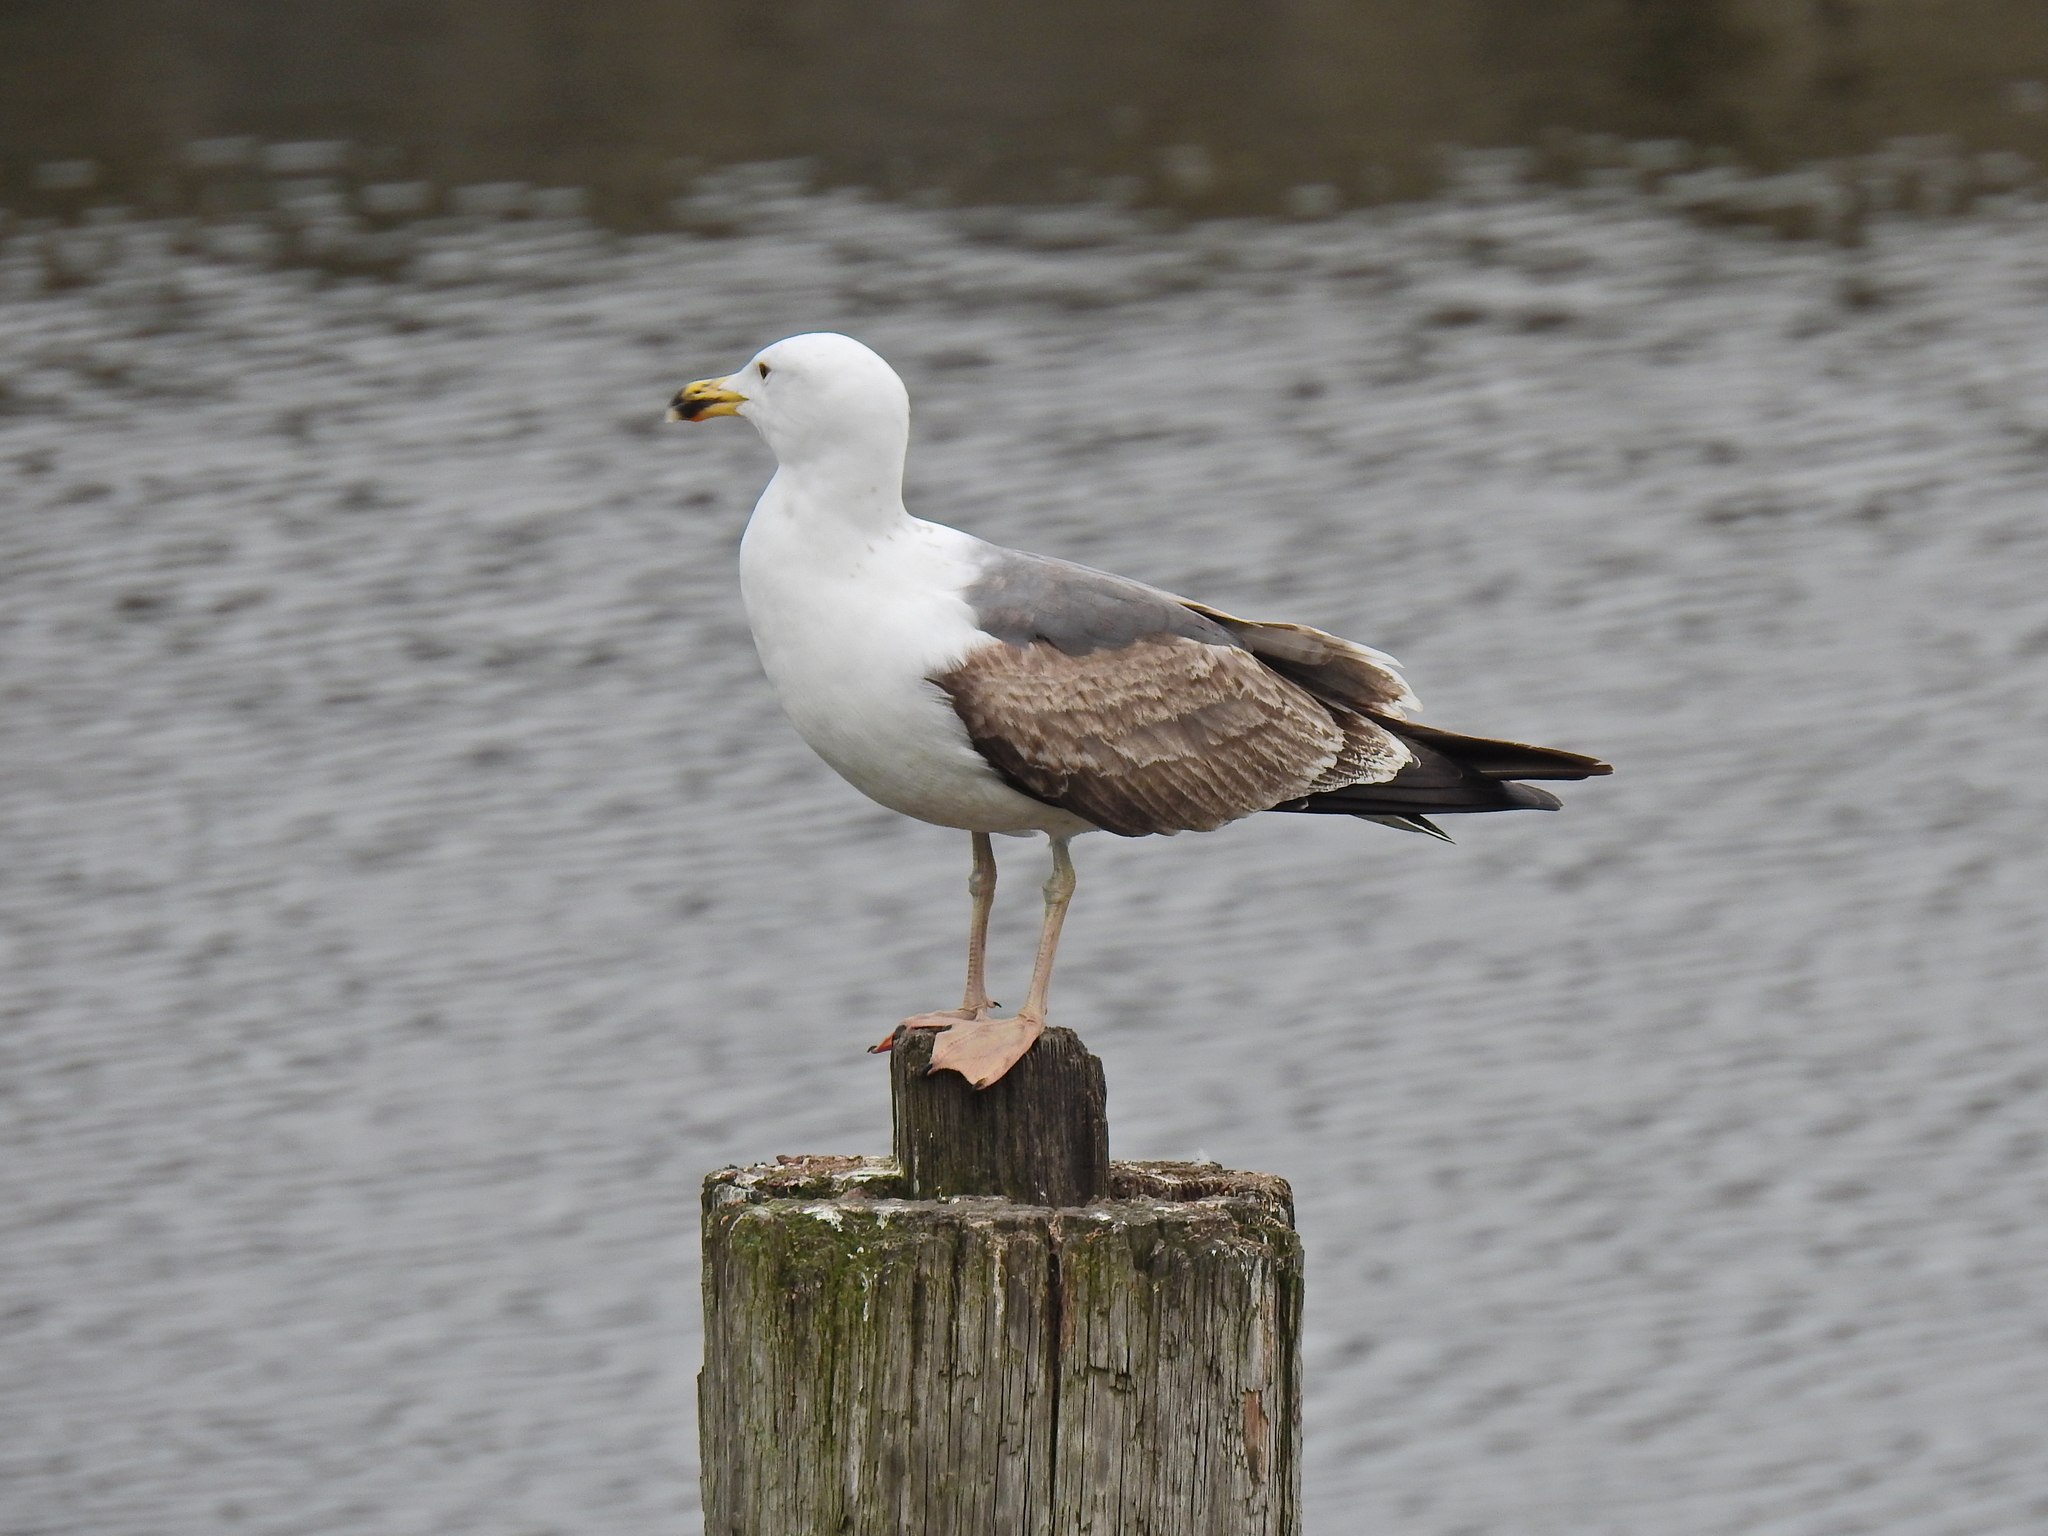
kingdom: Animalia
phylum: Chordata
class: Aves
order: Charadriiformes
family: Laridae
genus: Larus
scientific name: Larus marinus
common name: Great black-backed gull
